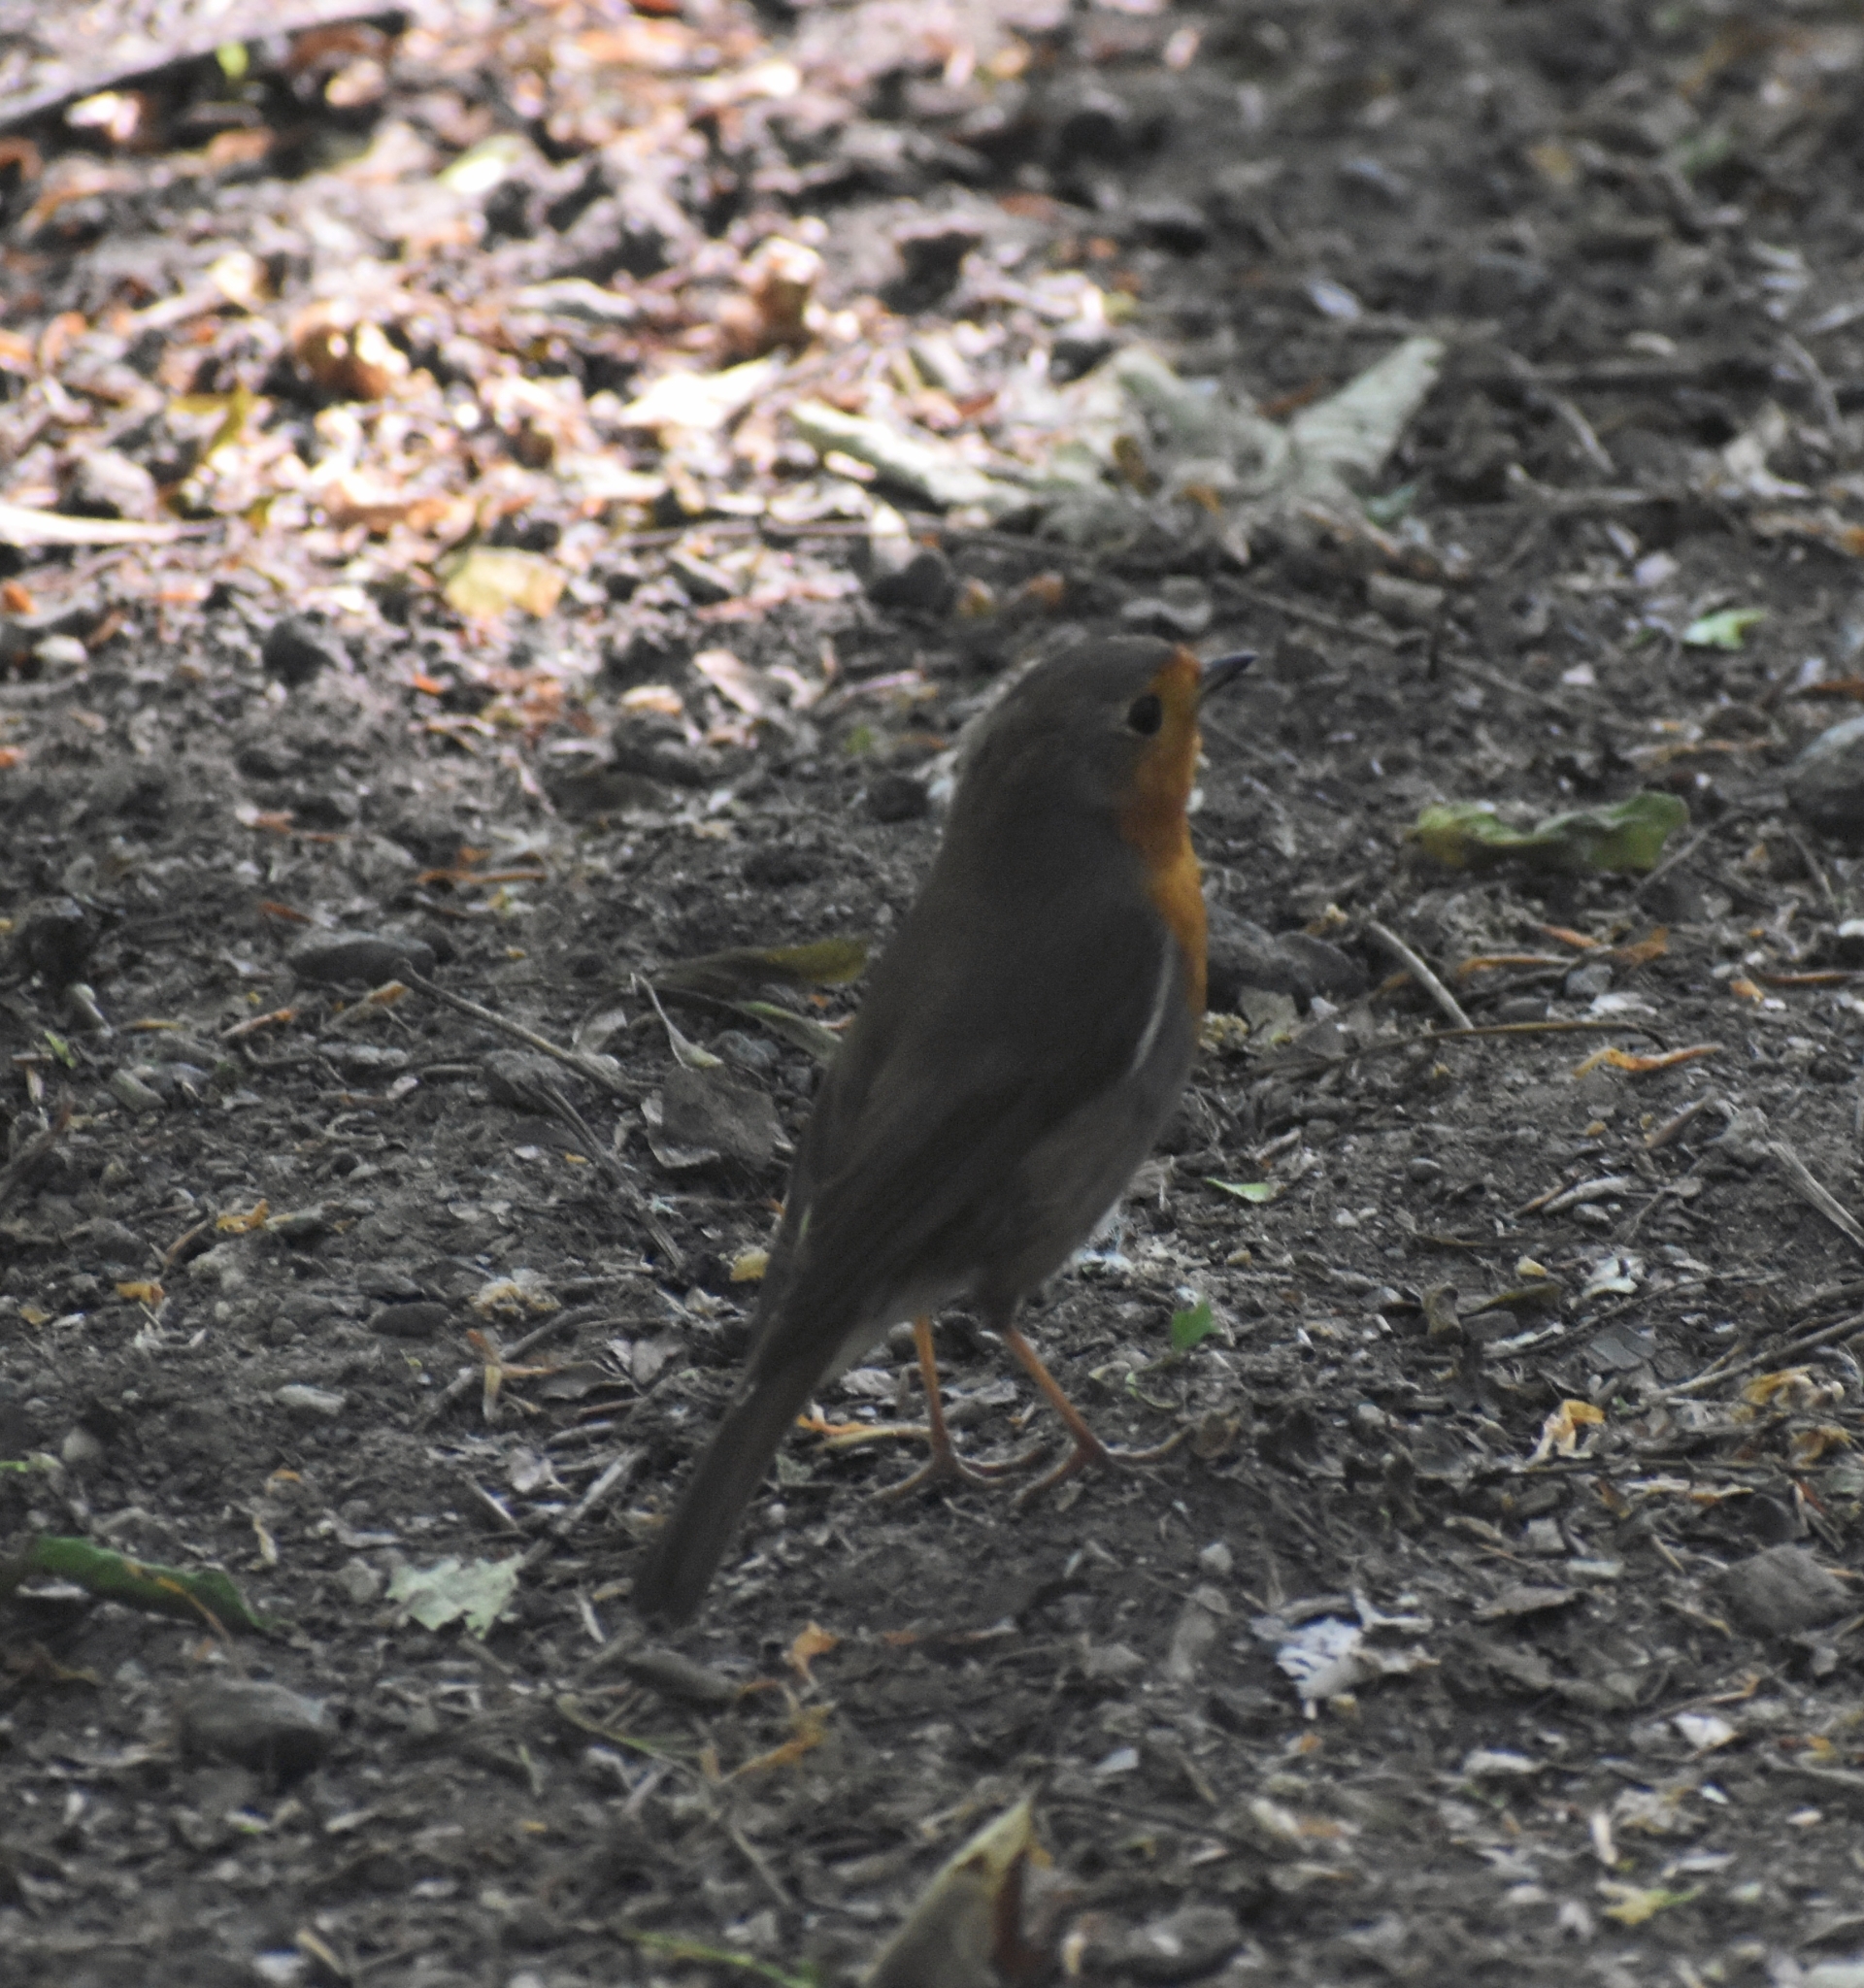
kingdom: Animalia
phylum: Chordata
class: Aves
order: Passeriformes
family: Muscicapidae
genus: Erithacus
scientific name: Erithacus rubecula
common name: European robin
